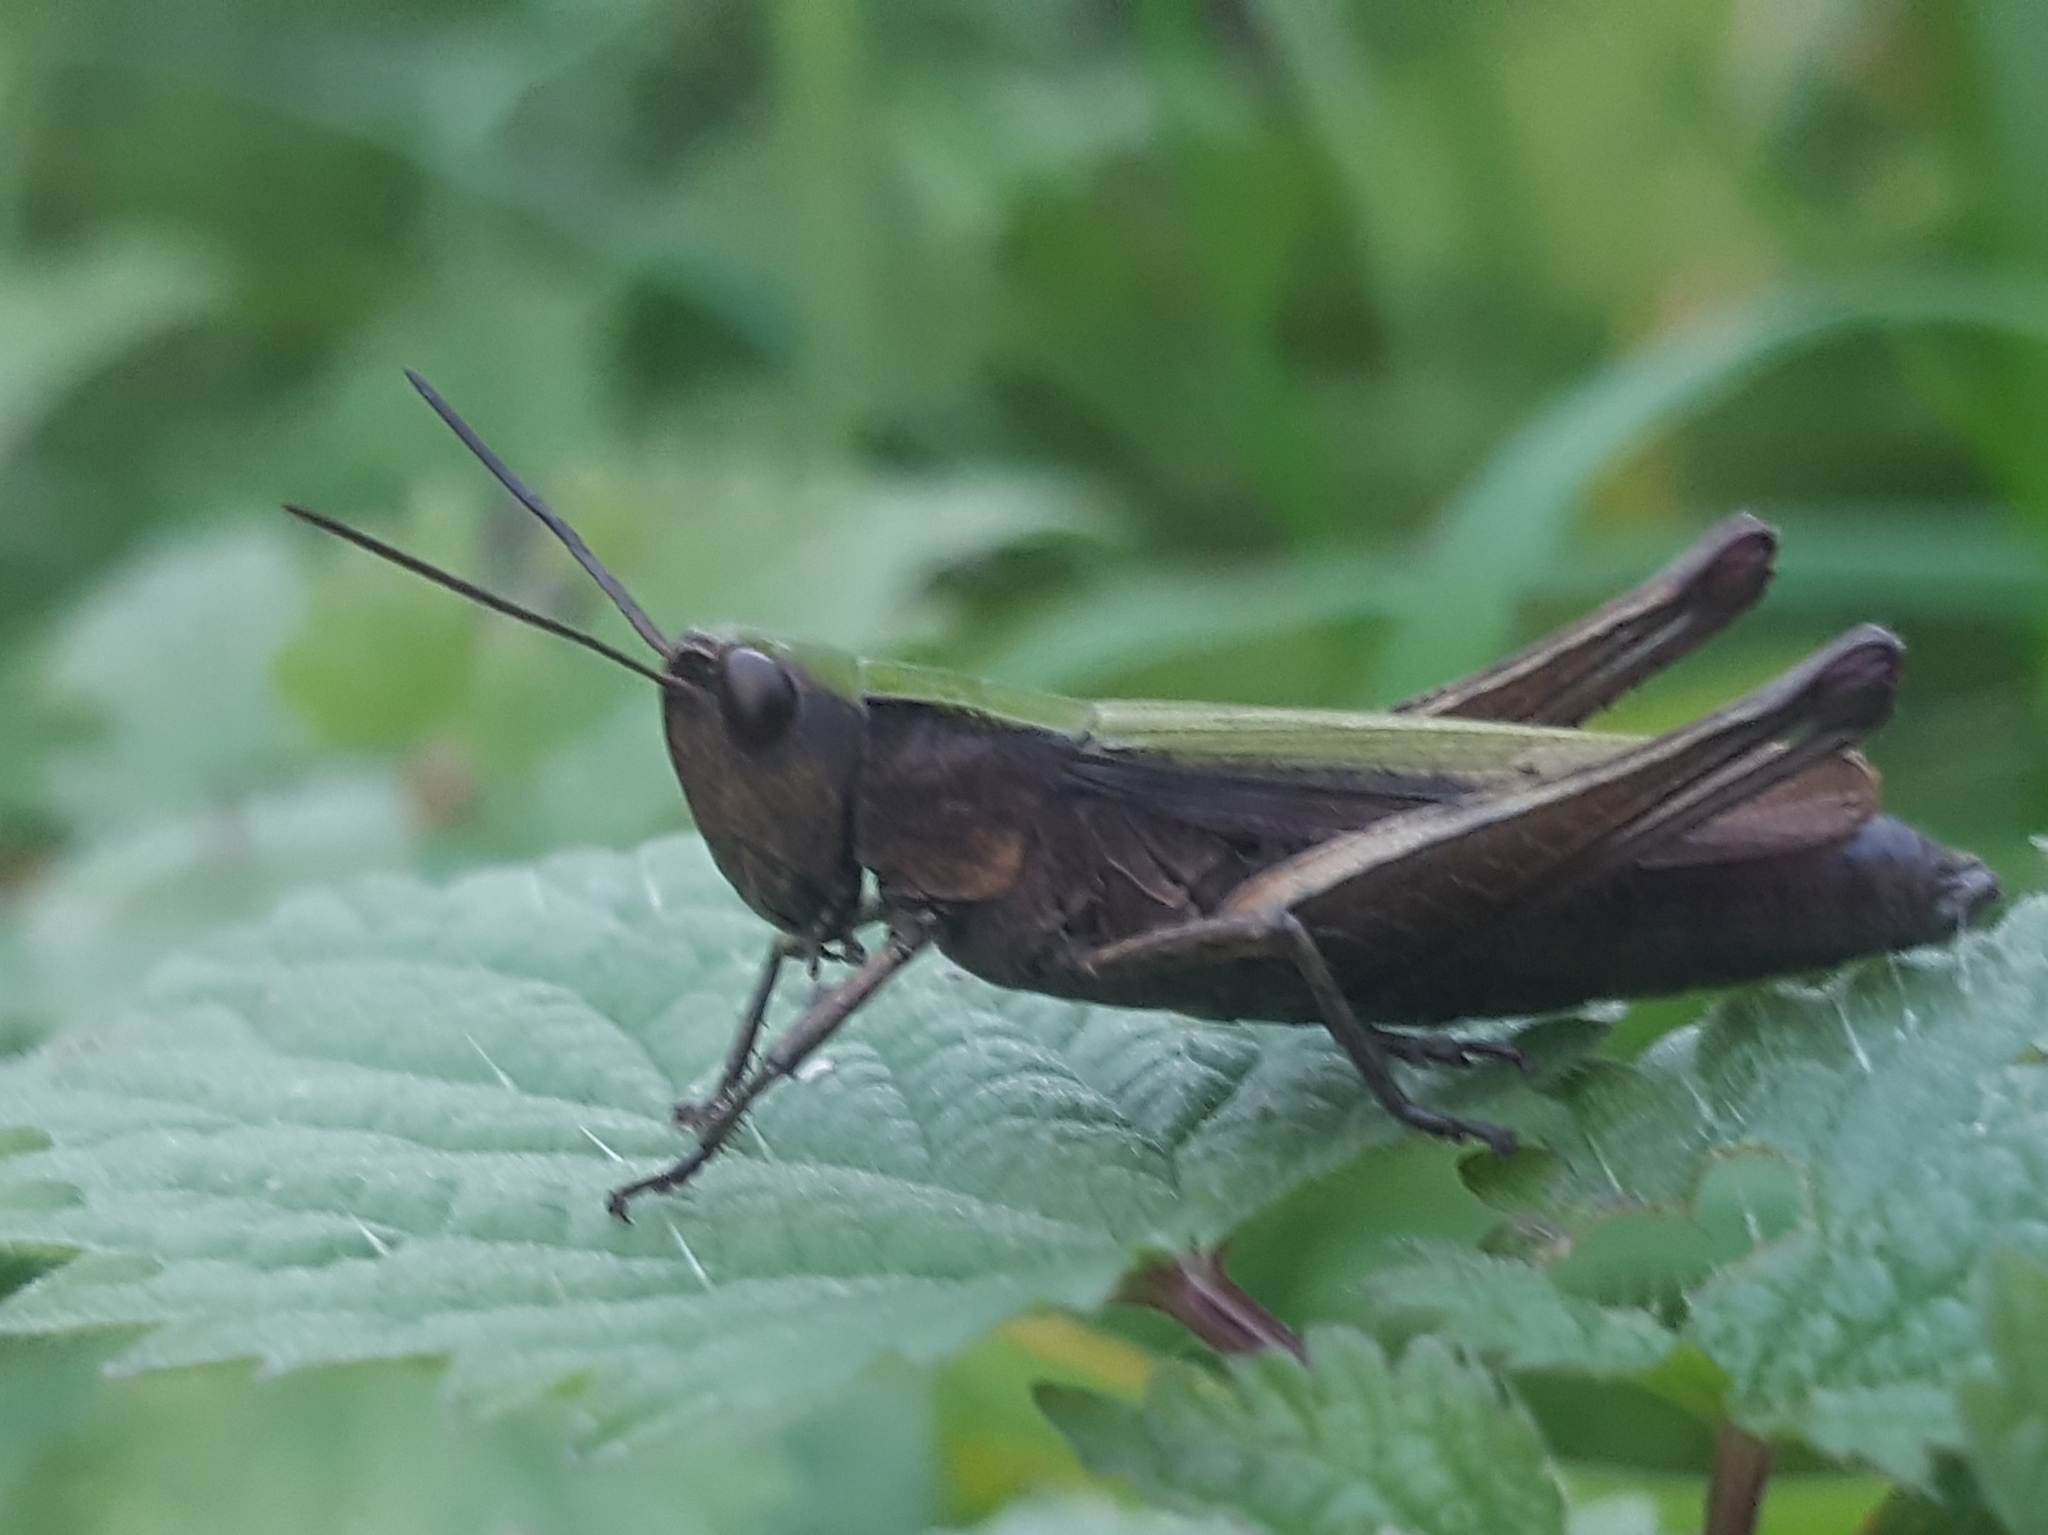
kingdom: Animalia
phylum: Arthropoda
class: Insecta
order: Orthoptera
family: Acrididae
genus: Chorthippus
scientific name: Chorthippus dorsatus
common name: Steppe grasshopper
